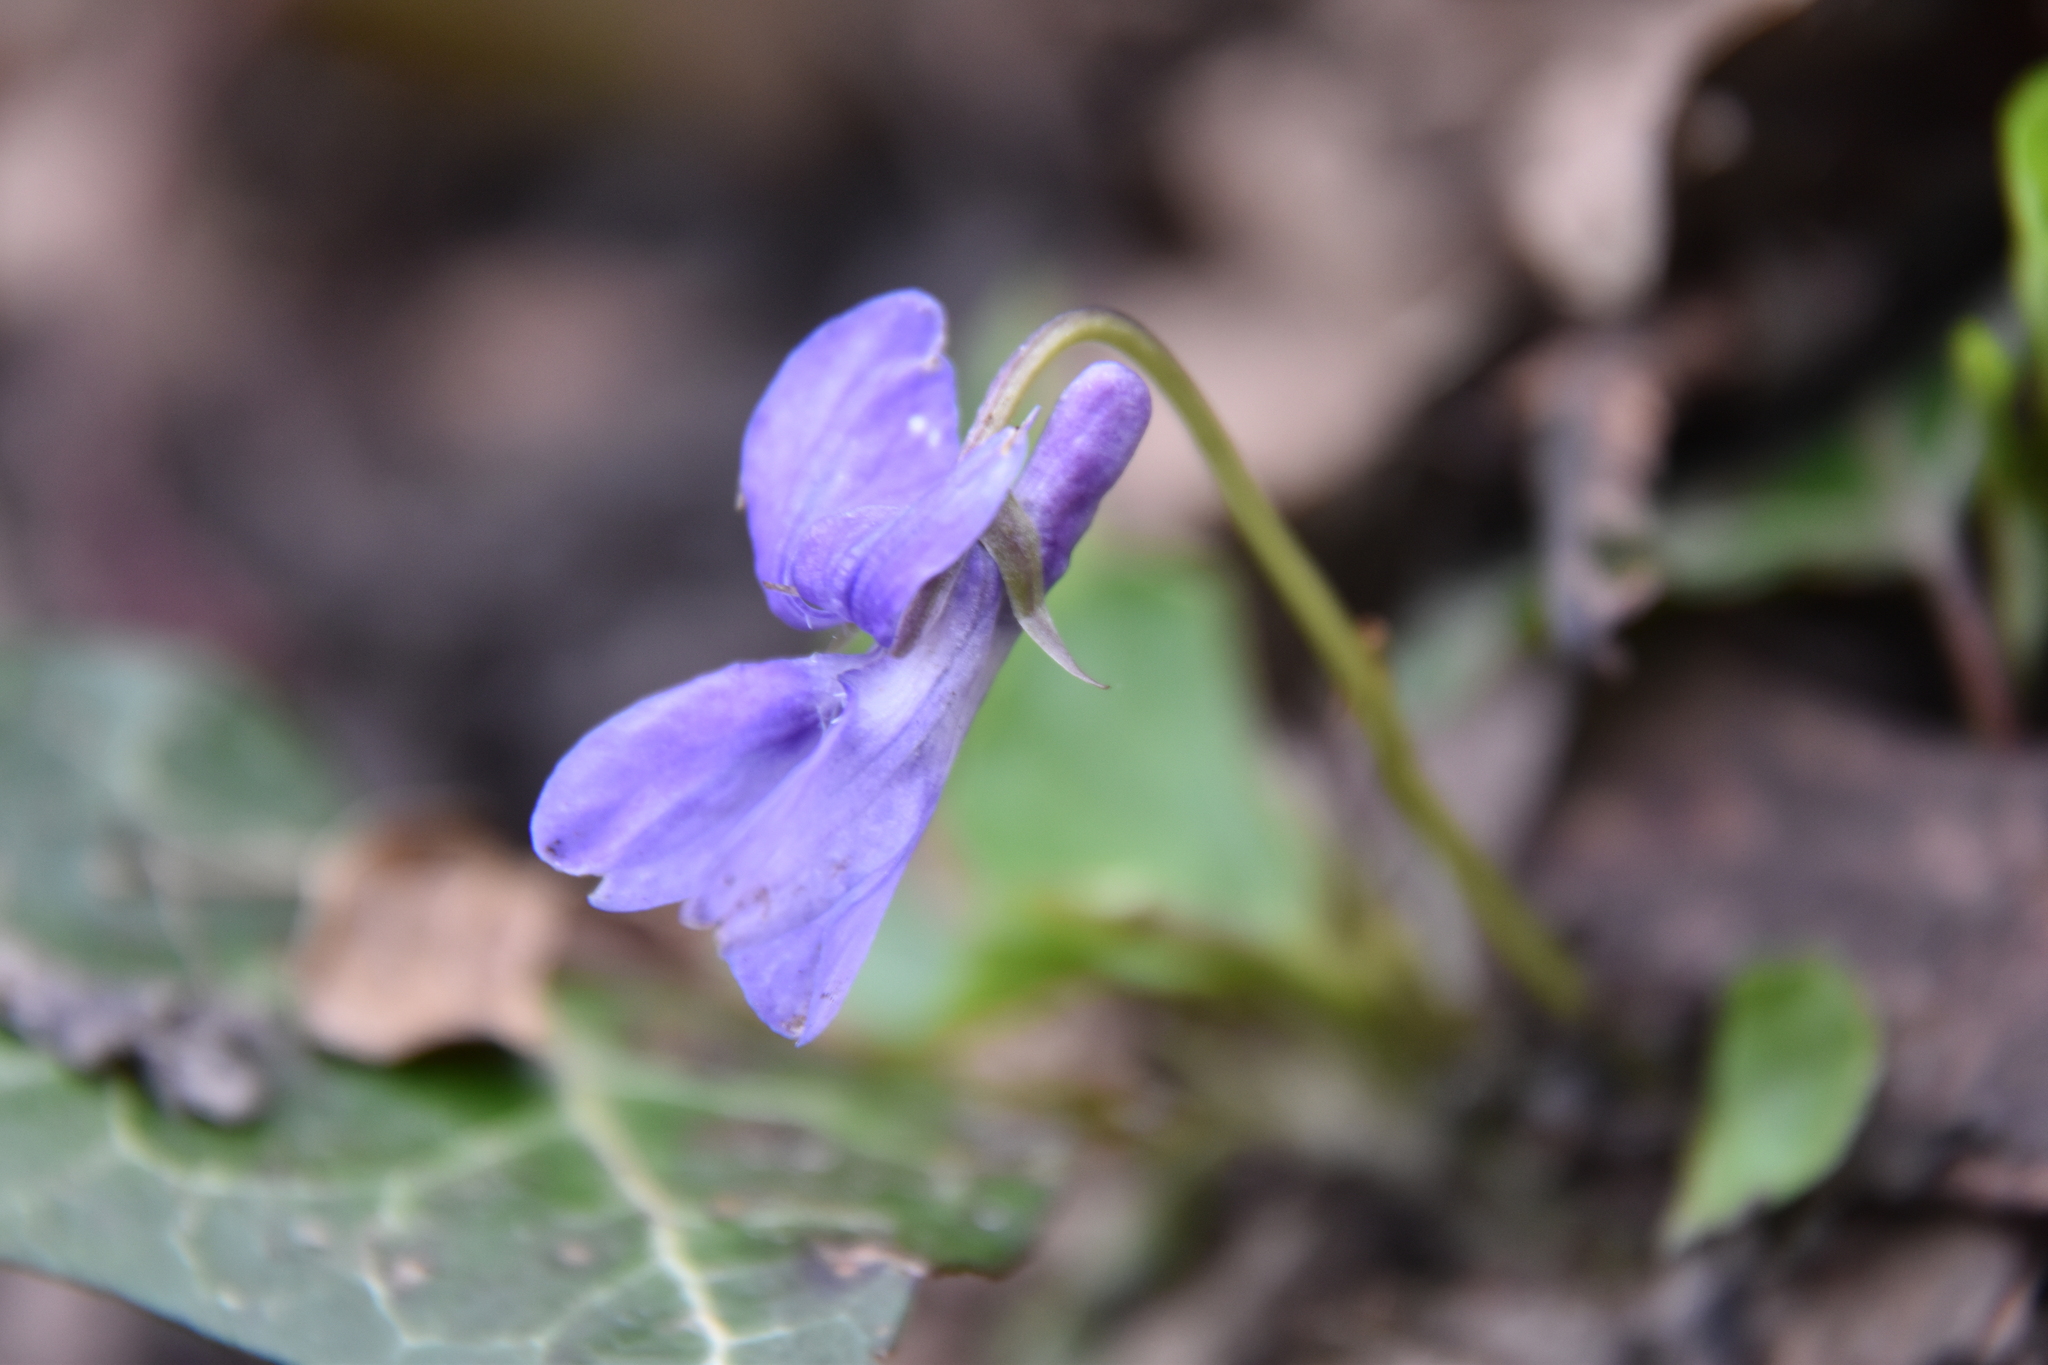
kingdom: Plantae
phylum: Tracheophyta
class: Magnoliopsida
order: Malpighiales
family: Violaceae
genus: Viola
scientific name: Viola reichenbachiana
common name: Early dog-violet
